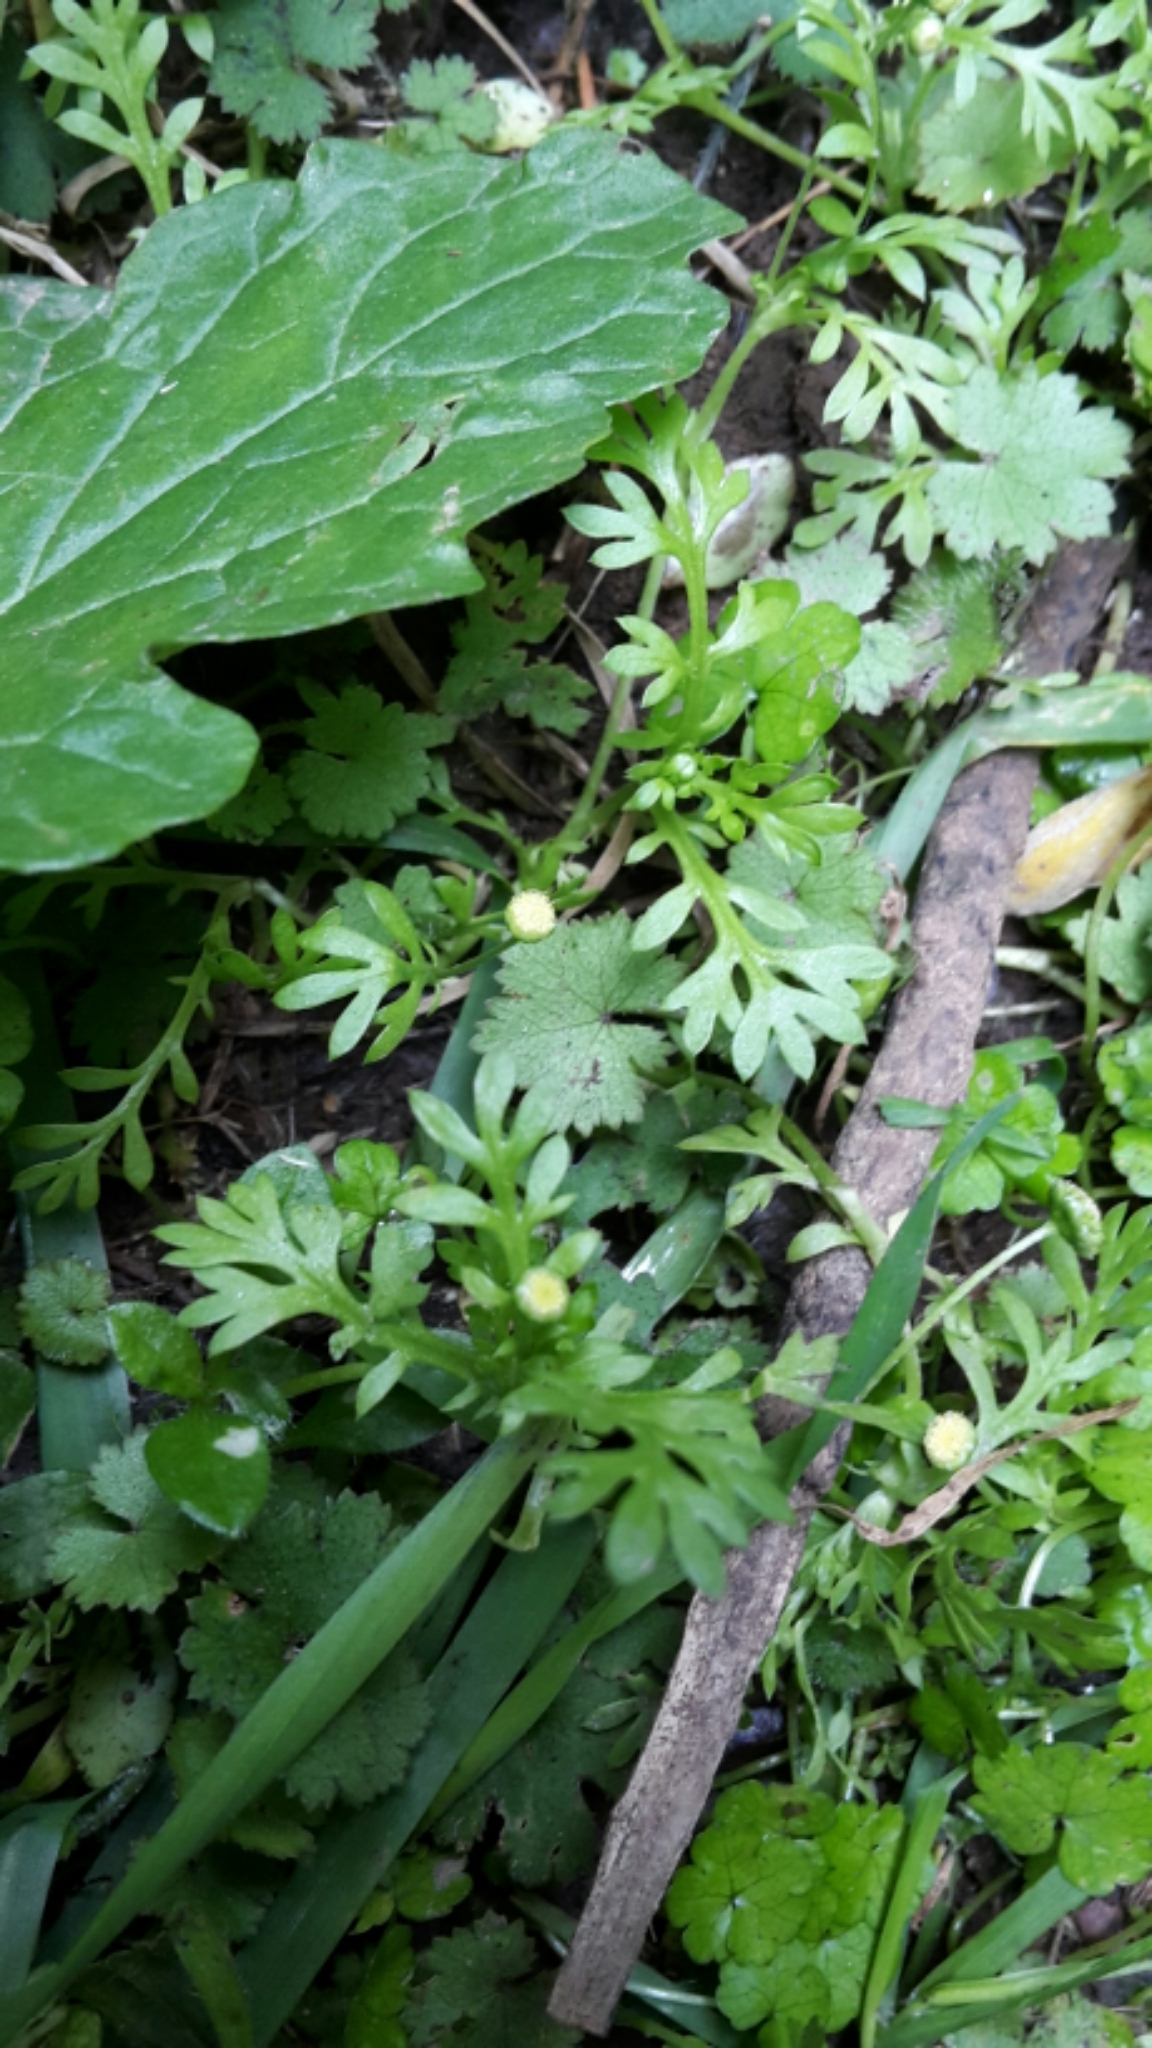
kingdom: Plantae
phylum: Tracheophyta
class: Magnoliopsida
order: Asterales
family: Asteraceae
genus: Cotula
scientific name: Cotula australis
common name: Australian waterbuttons
